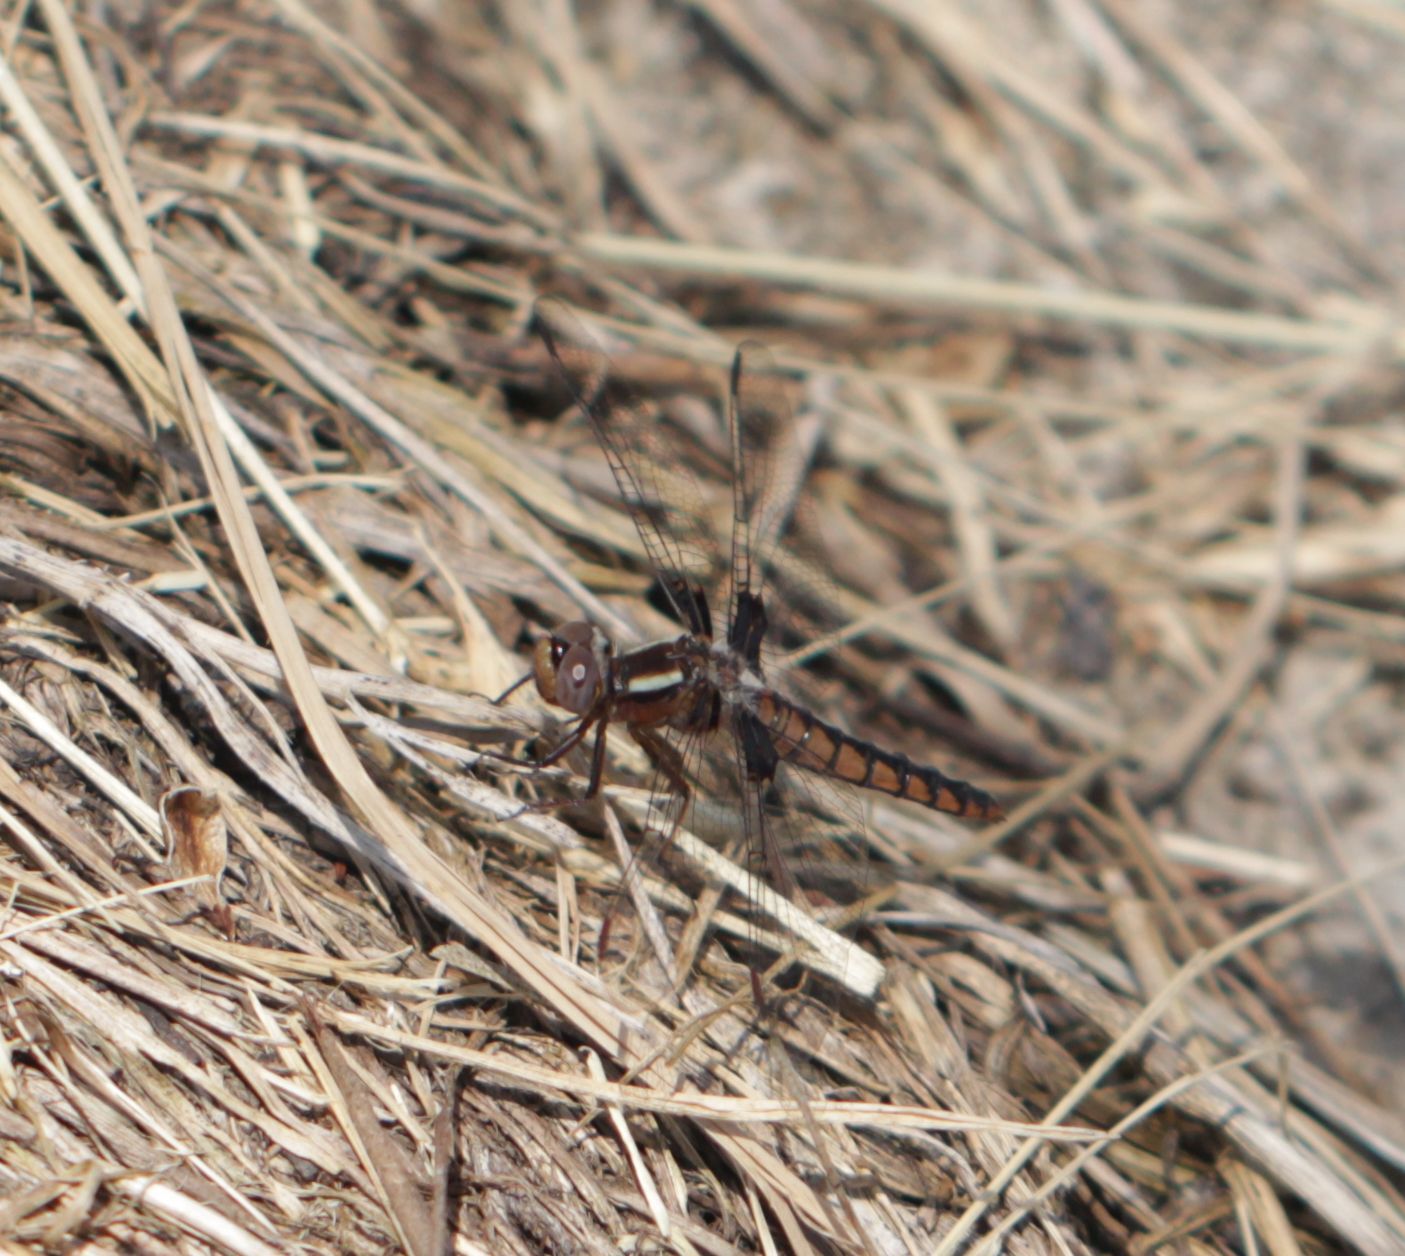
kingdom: Animalia
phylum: Arthropoda
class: Insecta
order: Odonata
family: Libellulidae
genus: Ladona
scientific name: Ladona deplanata
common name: Blue corporal
